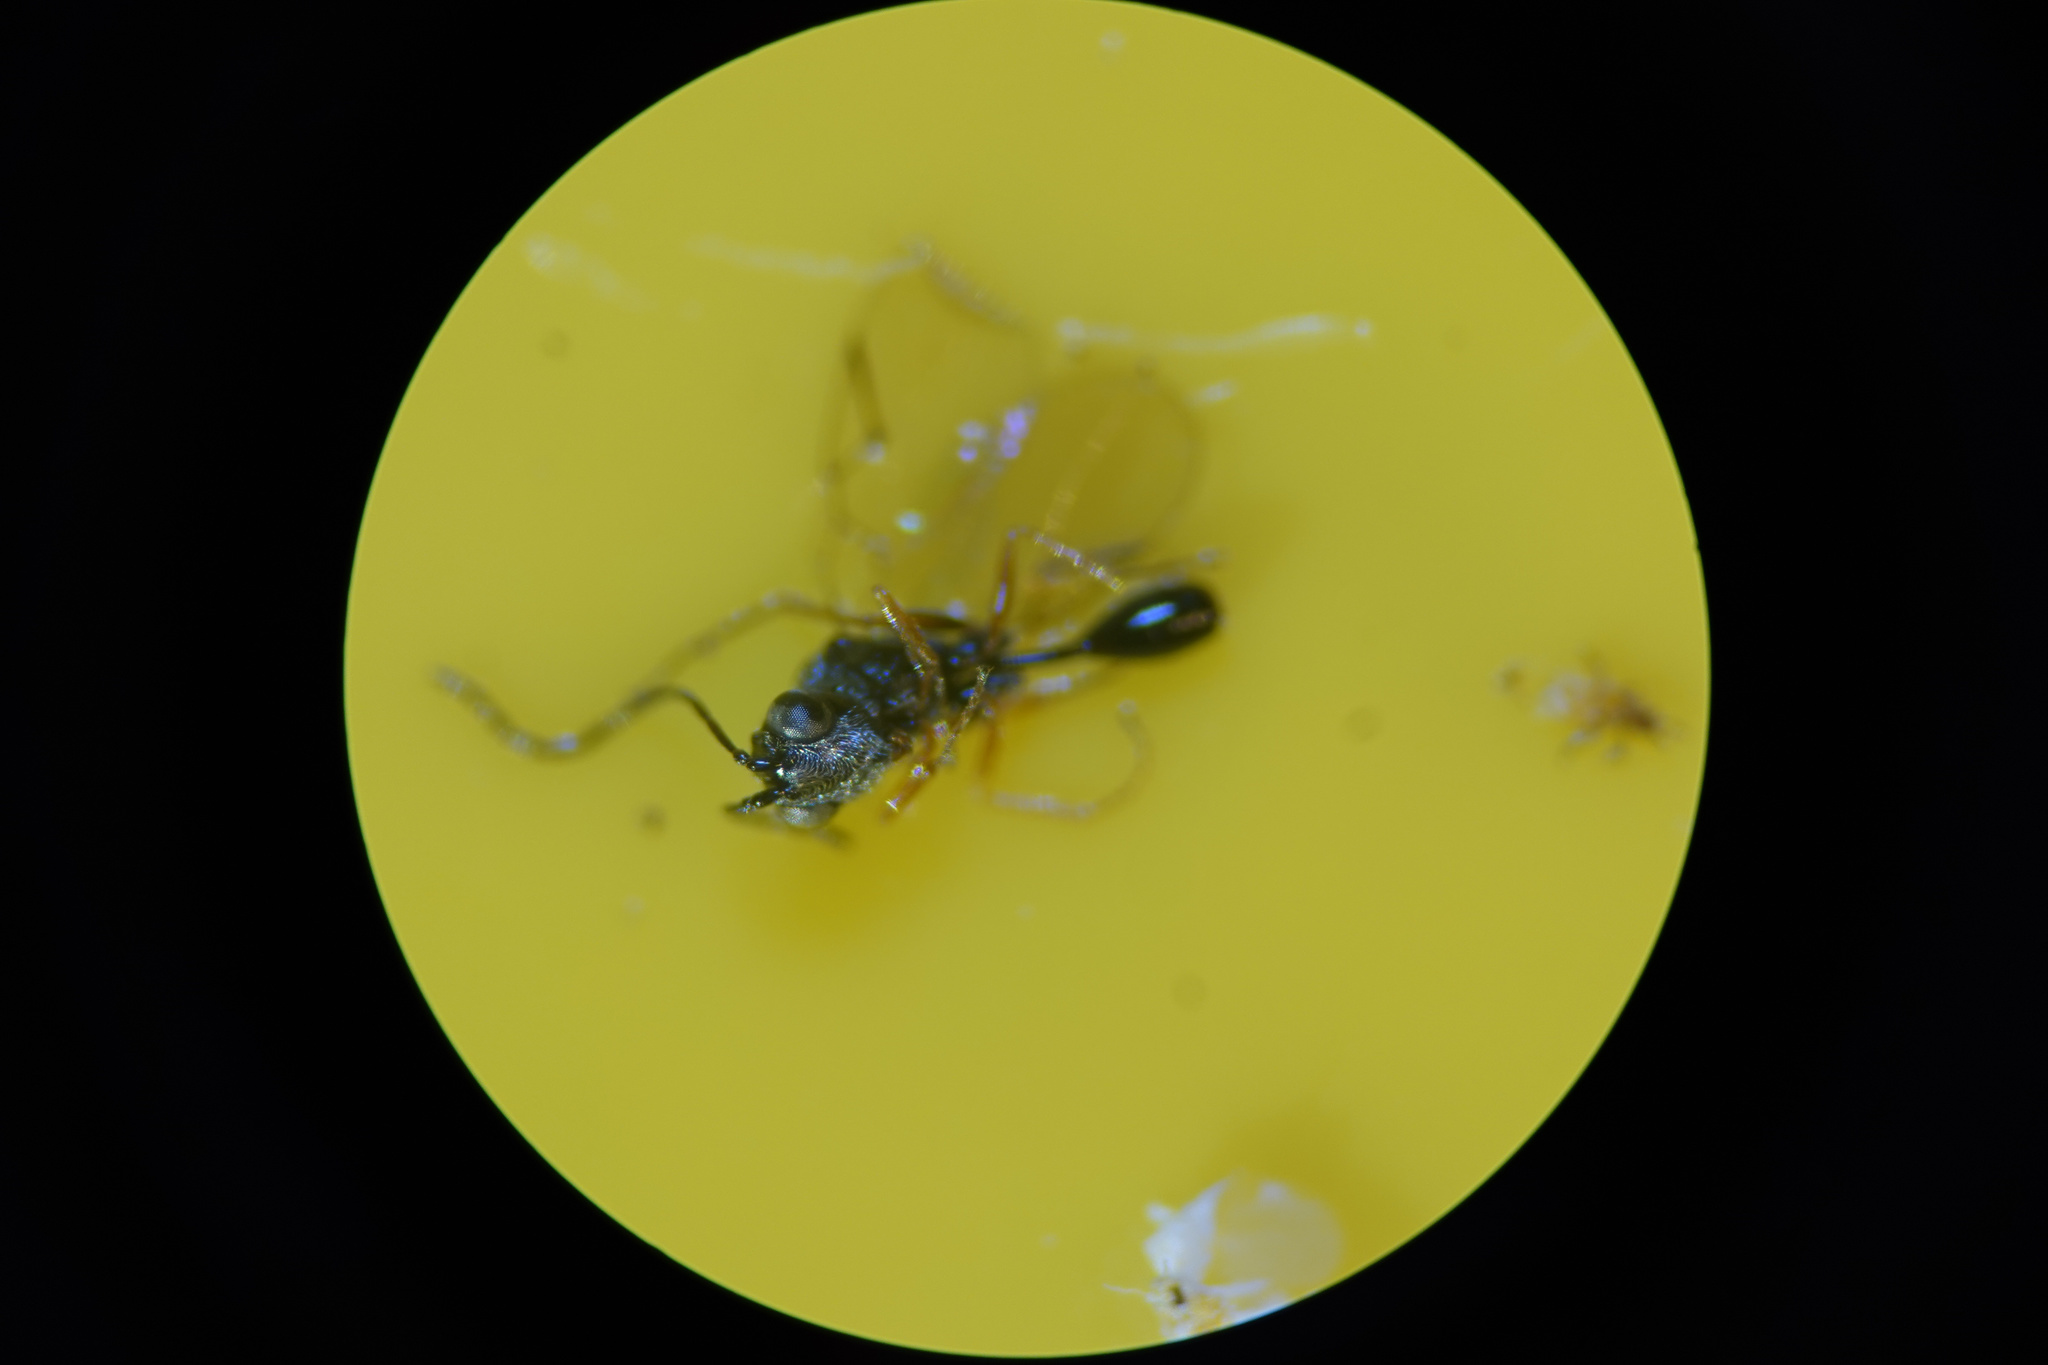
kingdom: Animalia
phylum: Arthropoda
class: Insecta
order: Hymenoptera
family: Figitidae
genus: Anacharis
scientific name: Anacharis zealandica
